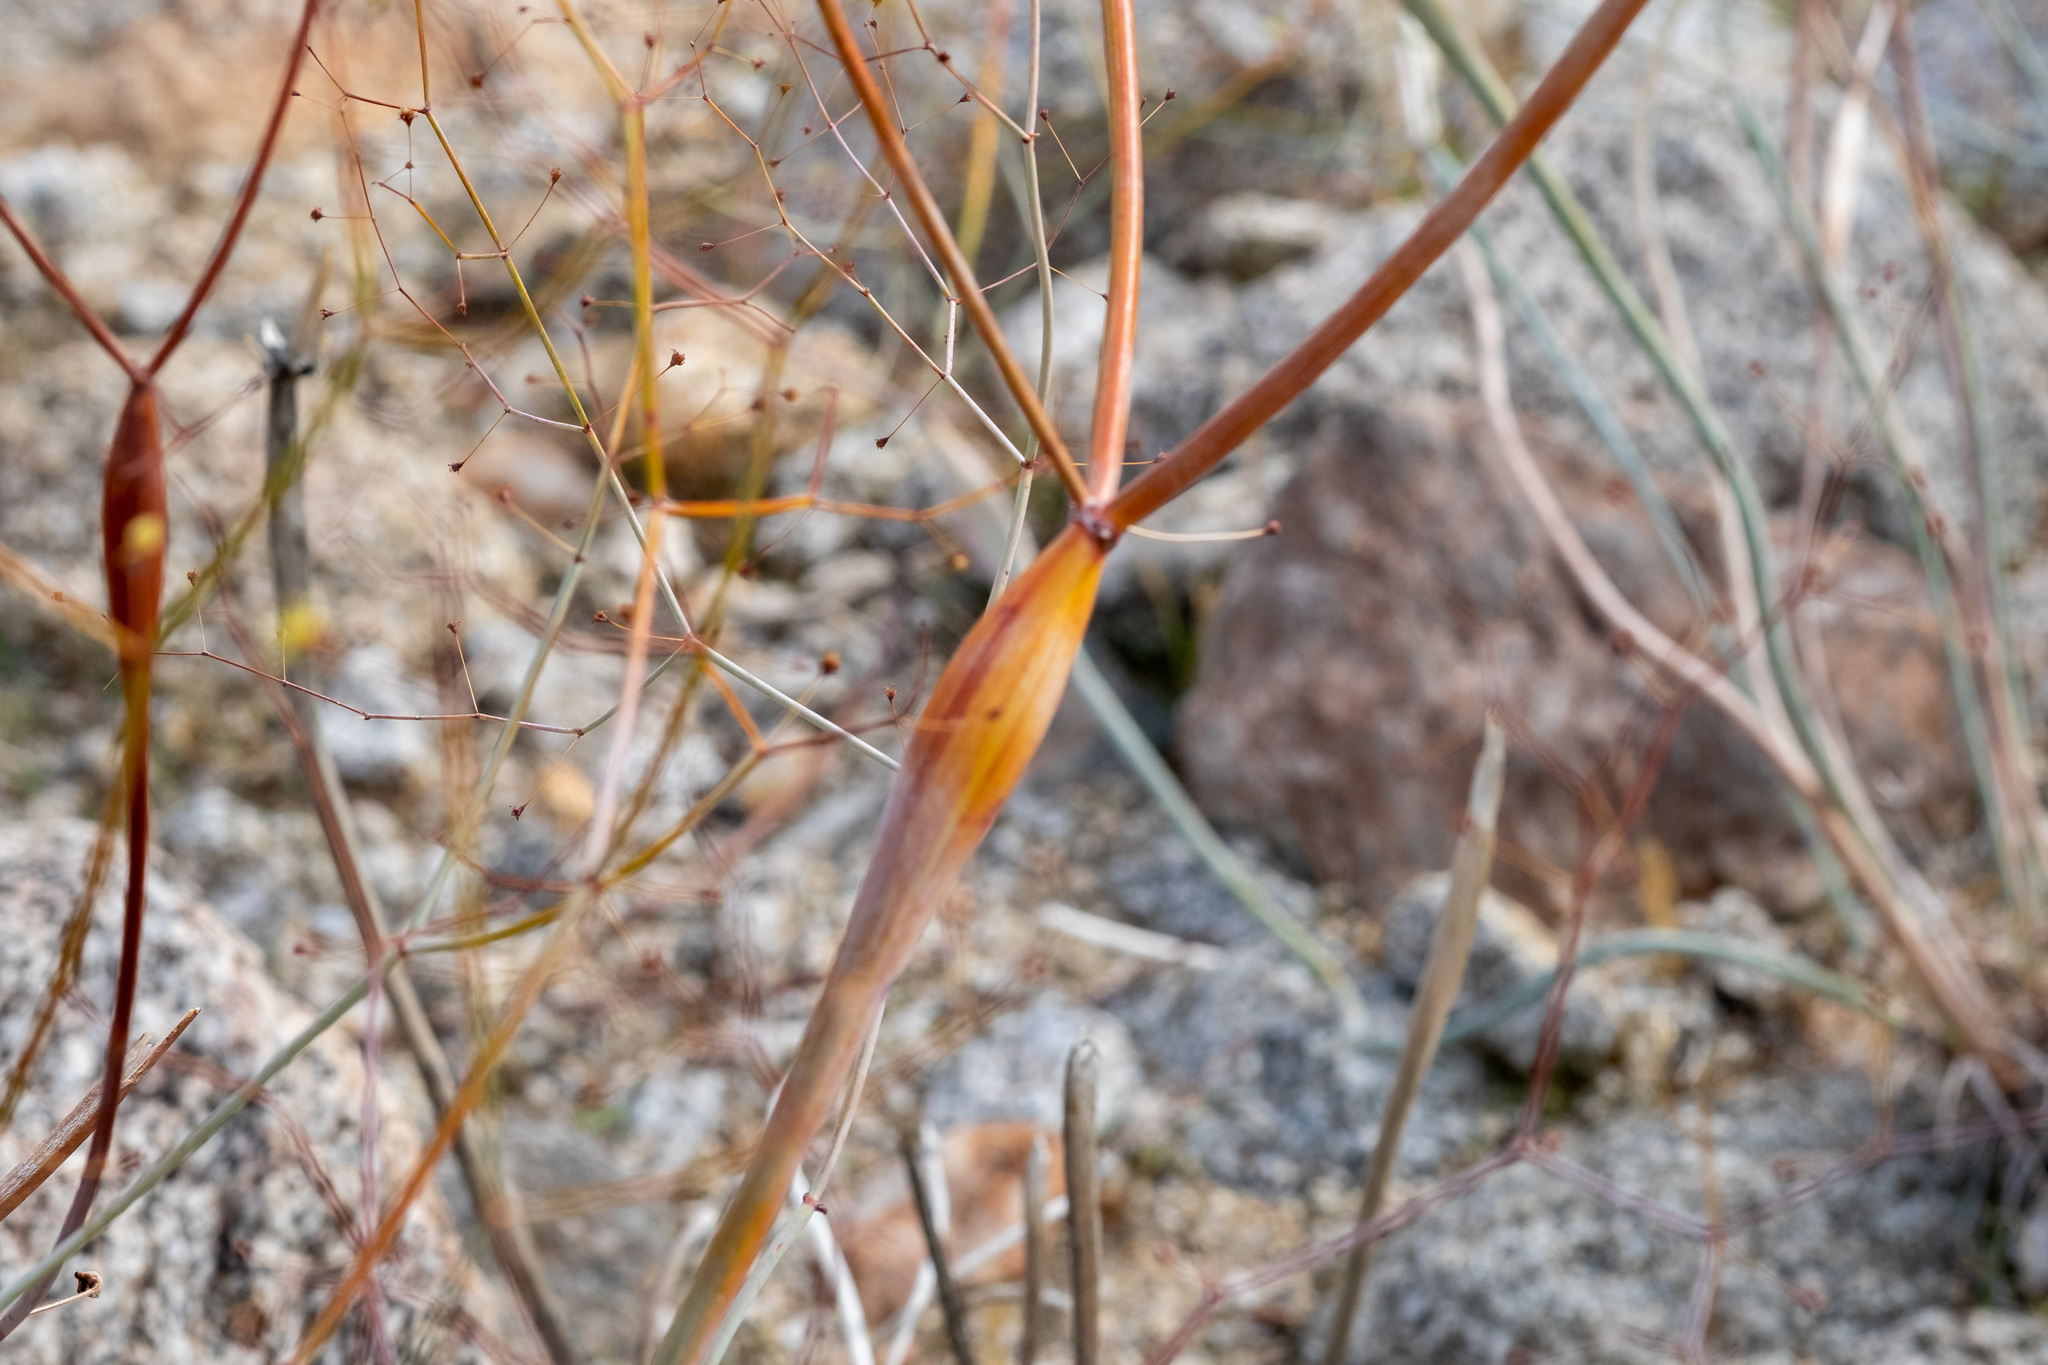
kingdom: Plantae
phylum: Tracheophyta
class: Magnoliopsida
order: Caryophyllales
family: Polygonaceae
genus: Eriogonum
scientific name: Eriogonum inflatum
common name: Desert trumpet
